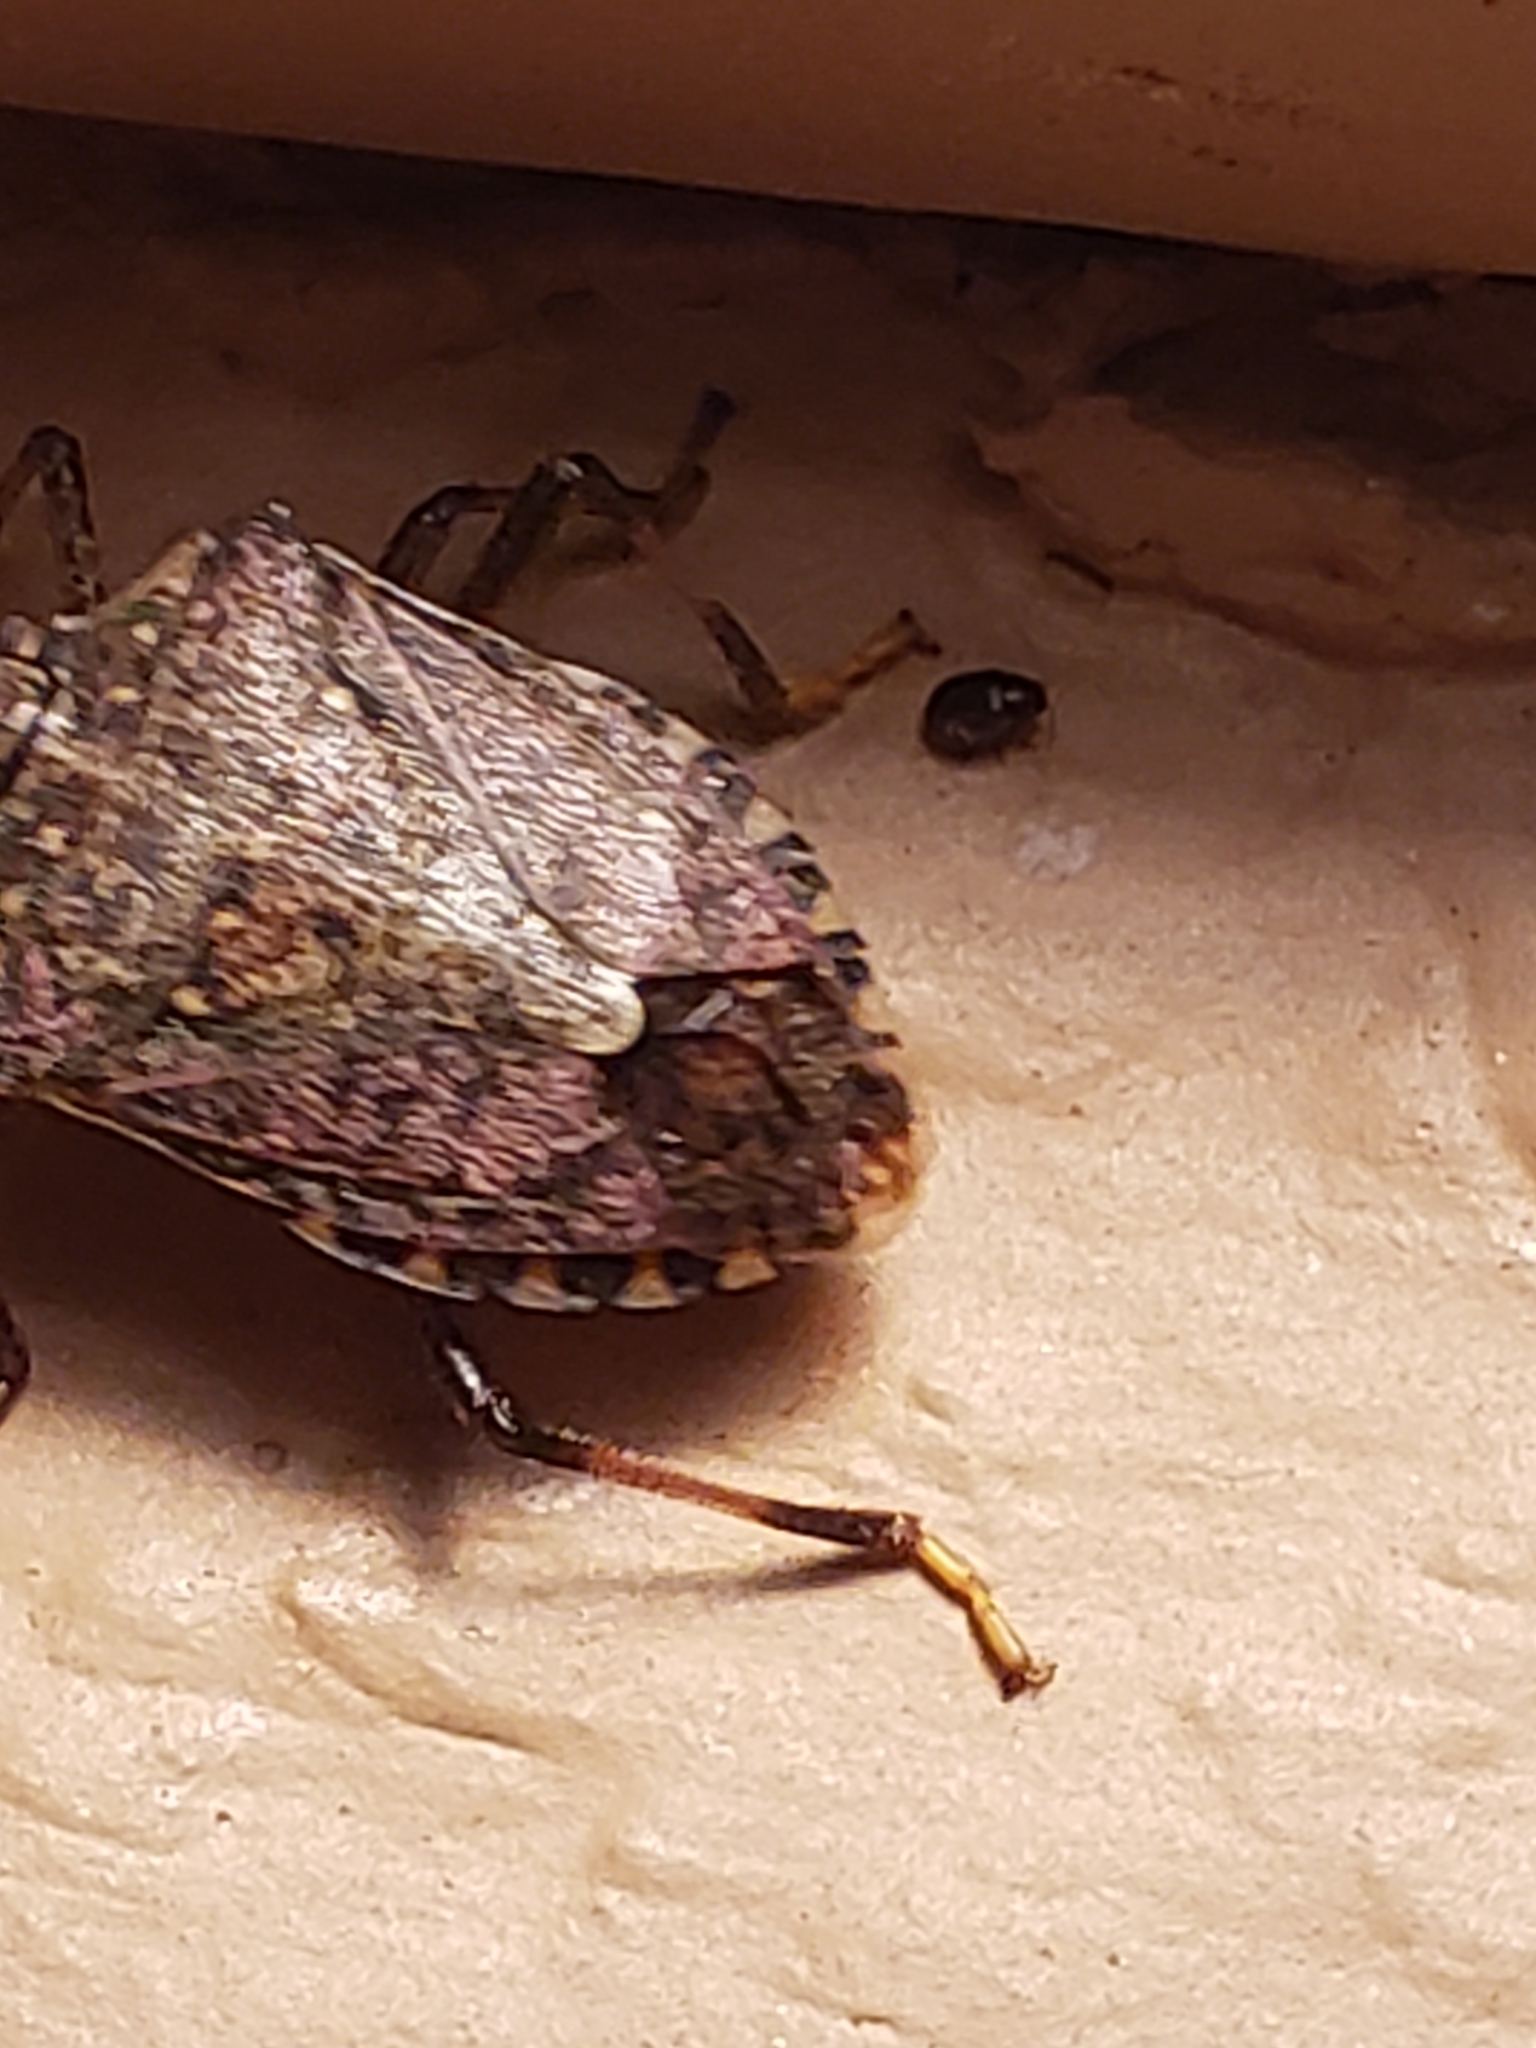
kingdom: Animalia
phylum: Arthropoda
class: Insecta
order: Hemiptera
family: Pentatomidae
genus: Halyomorpha
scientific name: Halyomorpha halys
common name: Brown marmorated stink bug
